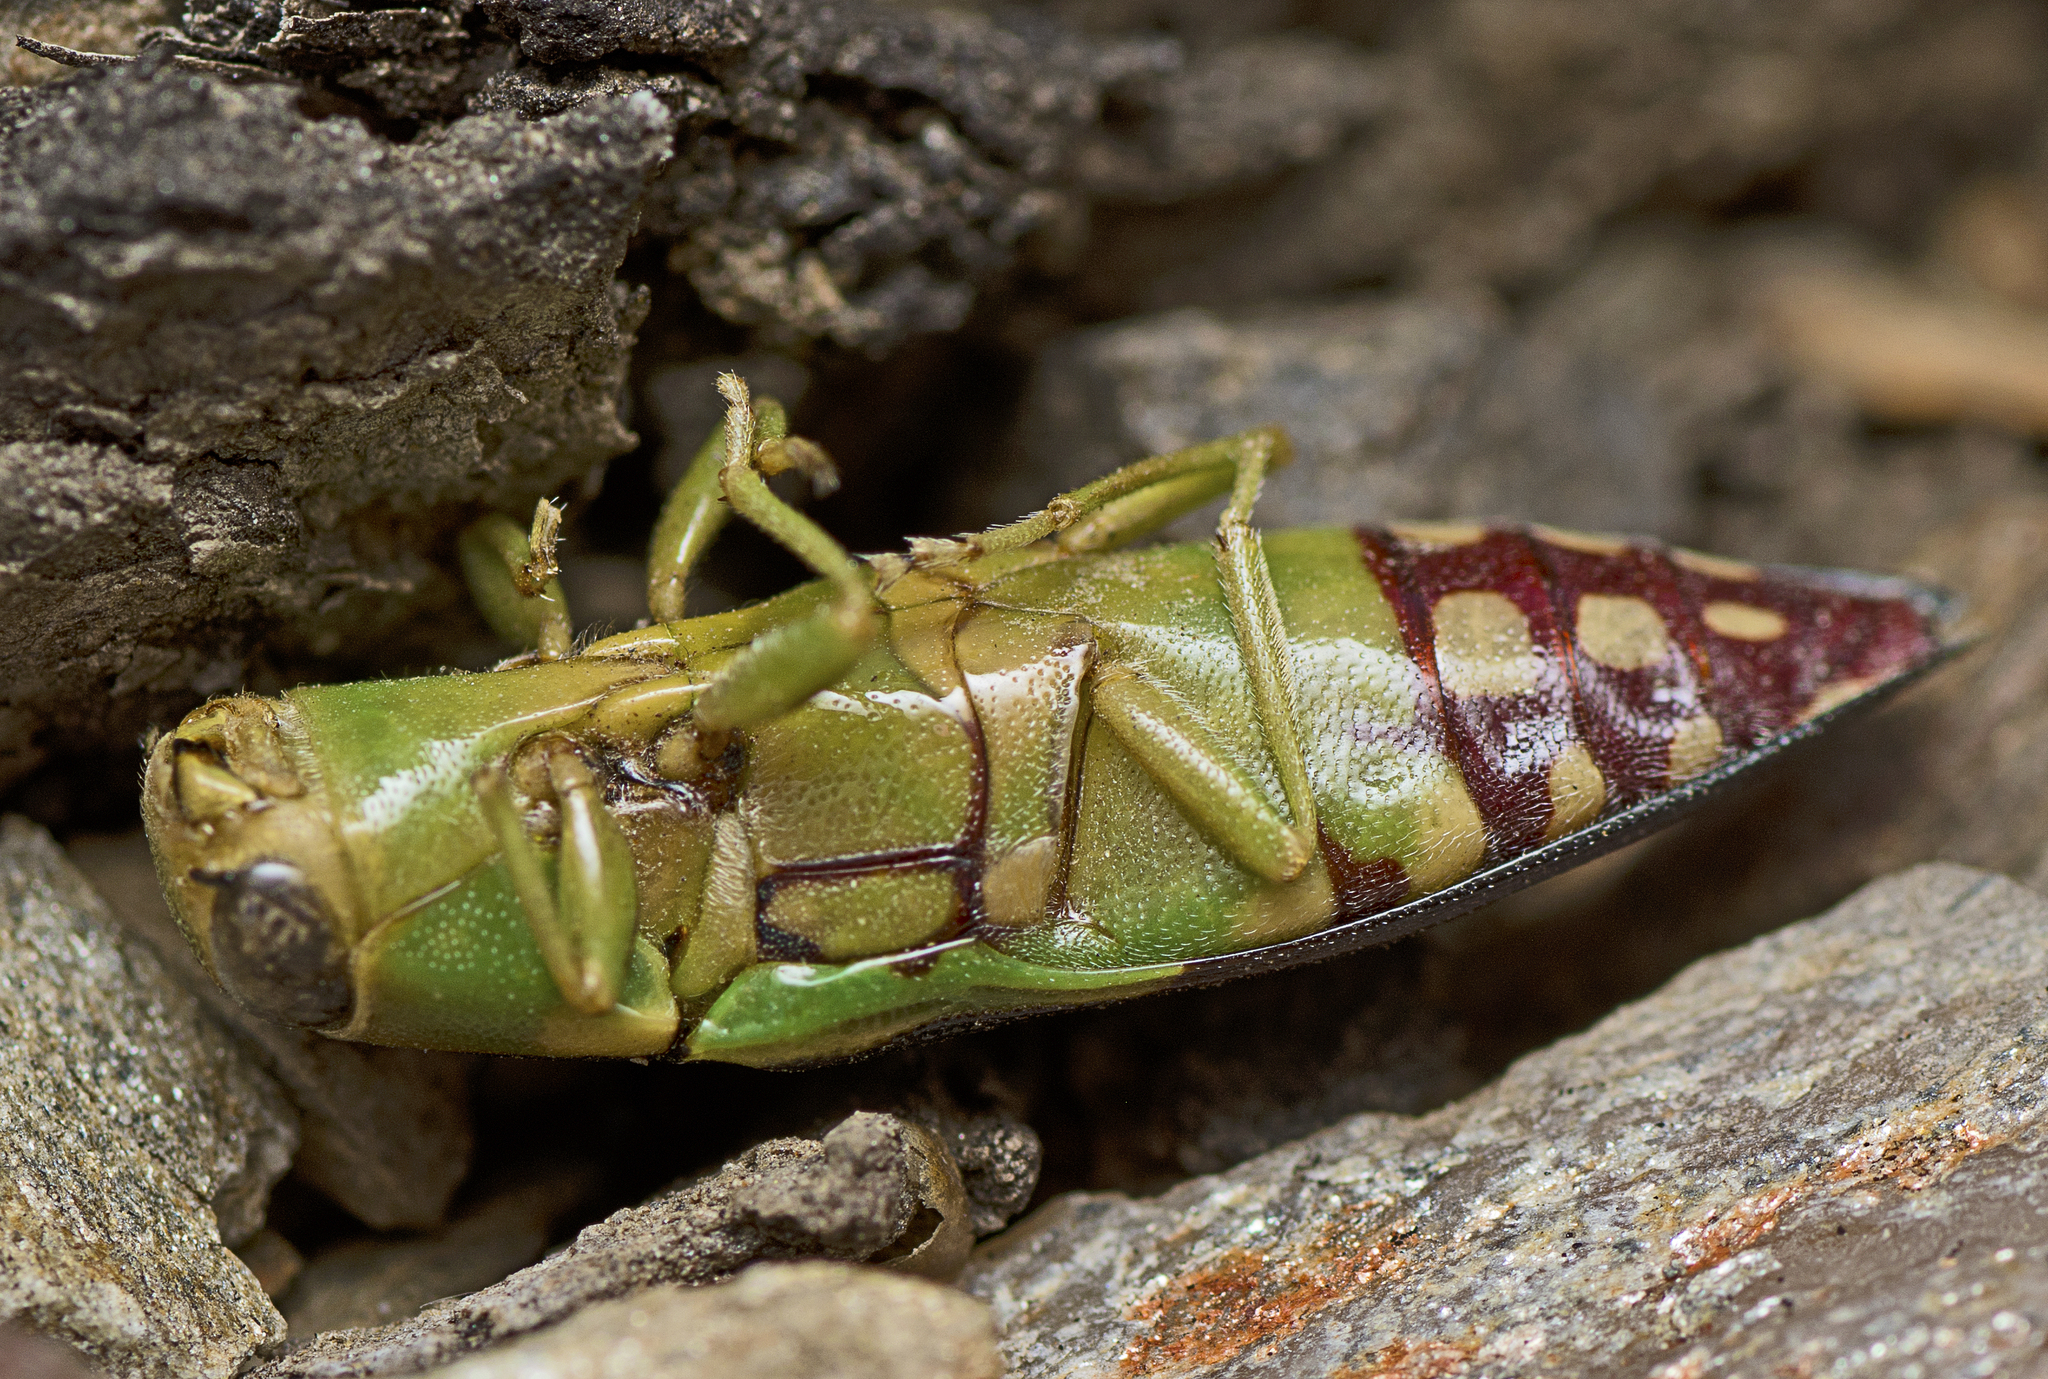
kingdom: Animalia
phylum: Arthropoda
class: Insecta
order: Coleoptera
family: Buprestidae
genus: Diadoxus
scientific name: Diadoxus erythrurus
